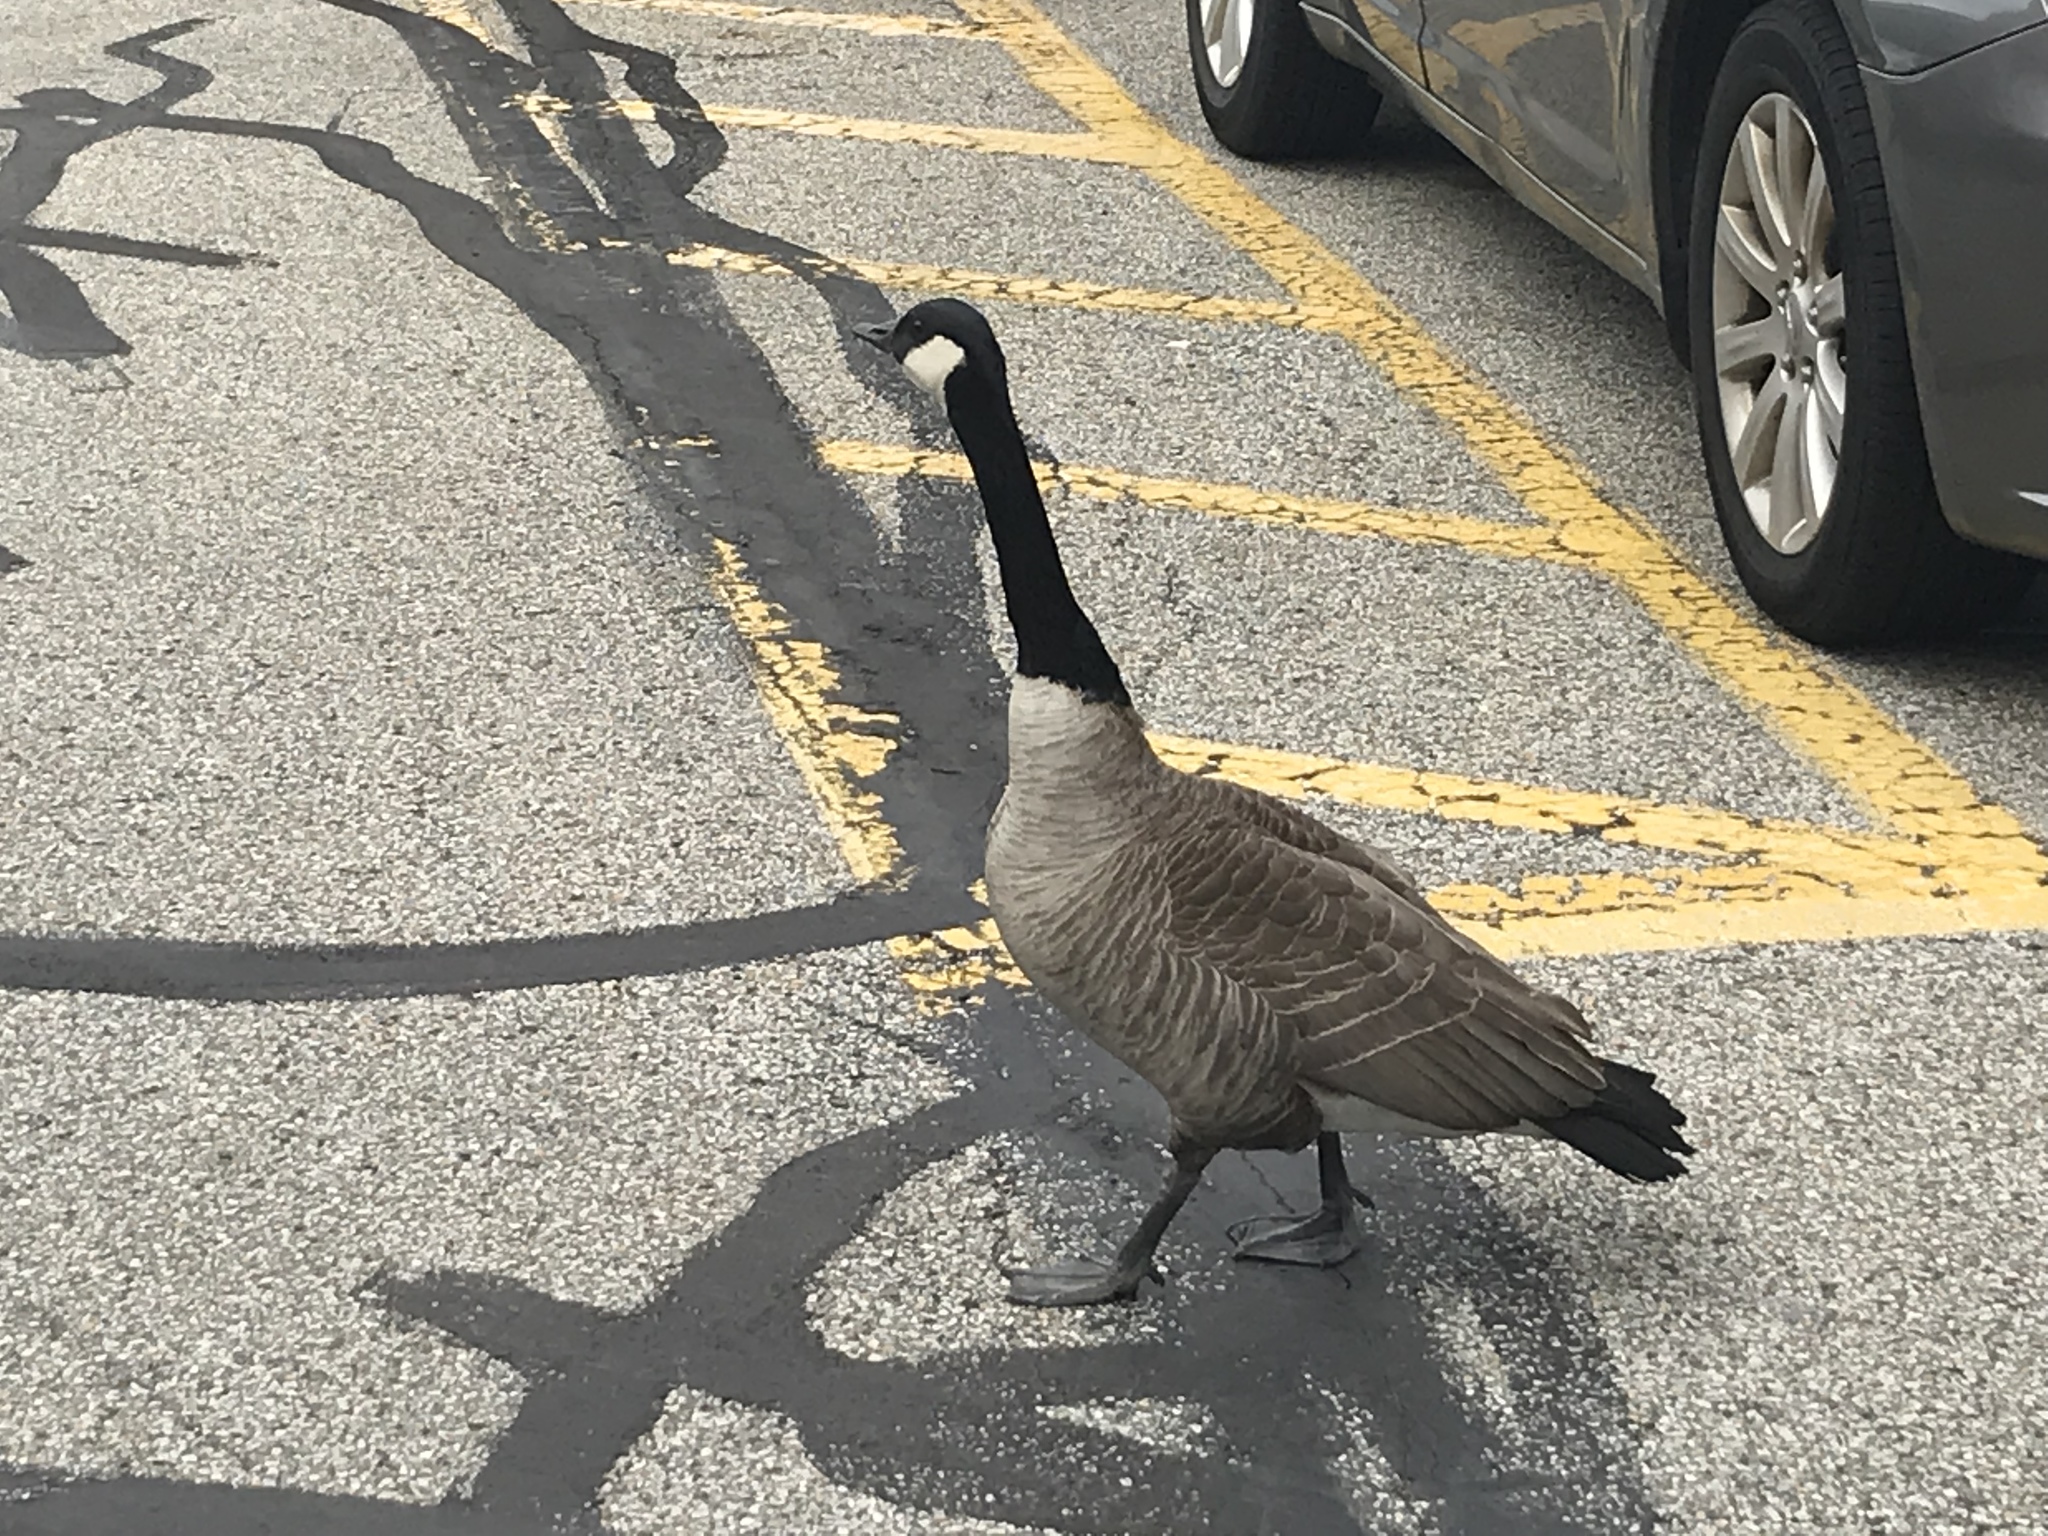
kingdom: Animalia
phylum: Chordata
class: Aves
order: Anseriformes
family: Anatidae
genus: Branta
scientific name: Branta canadensis
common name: Canada goose
